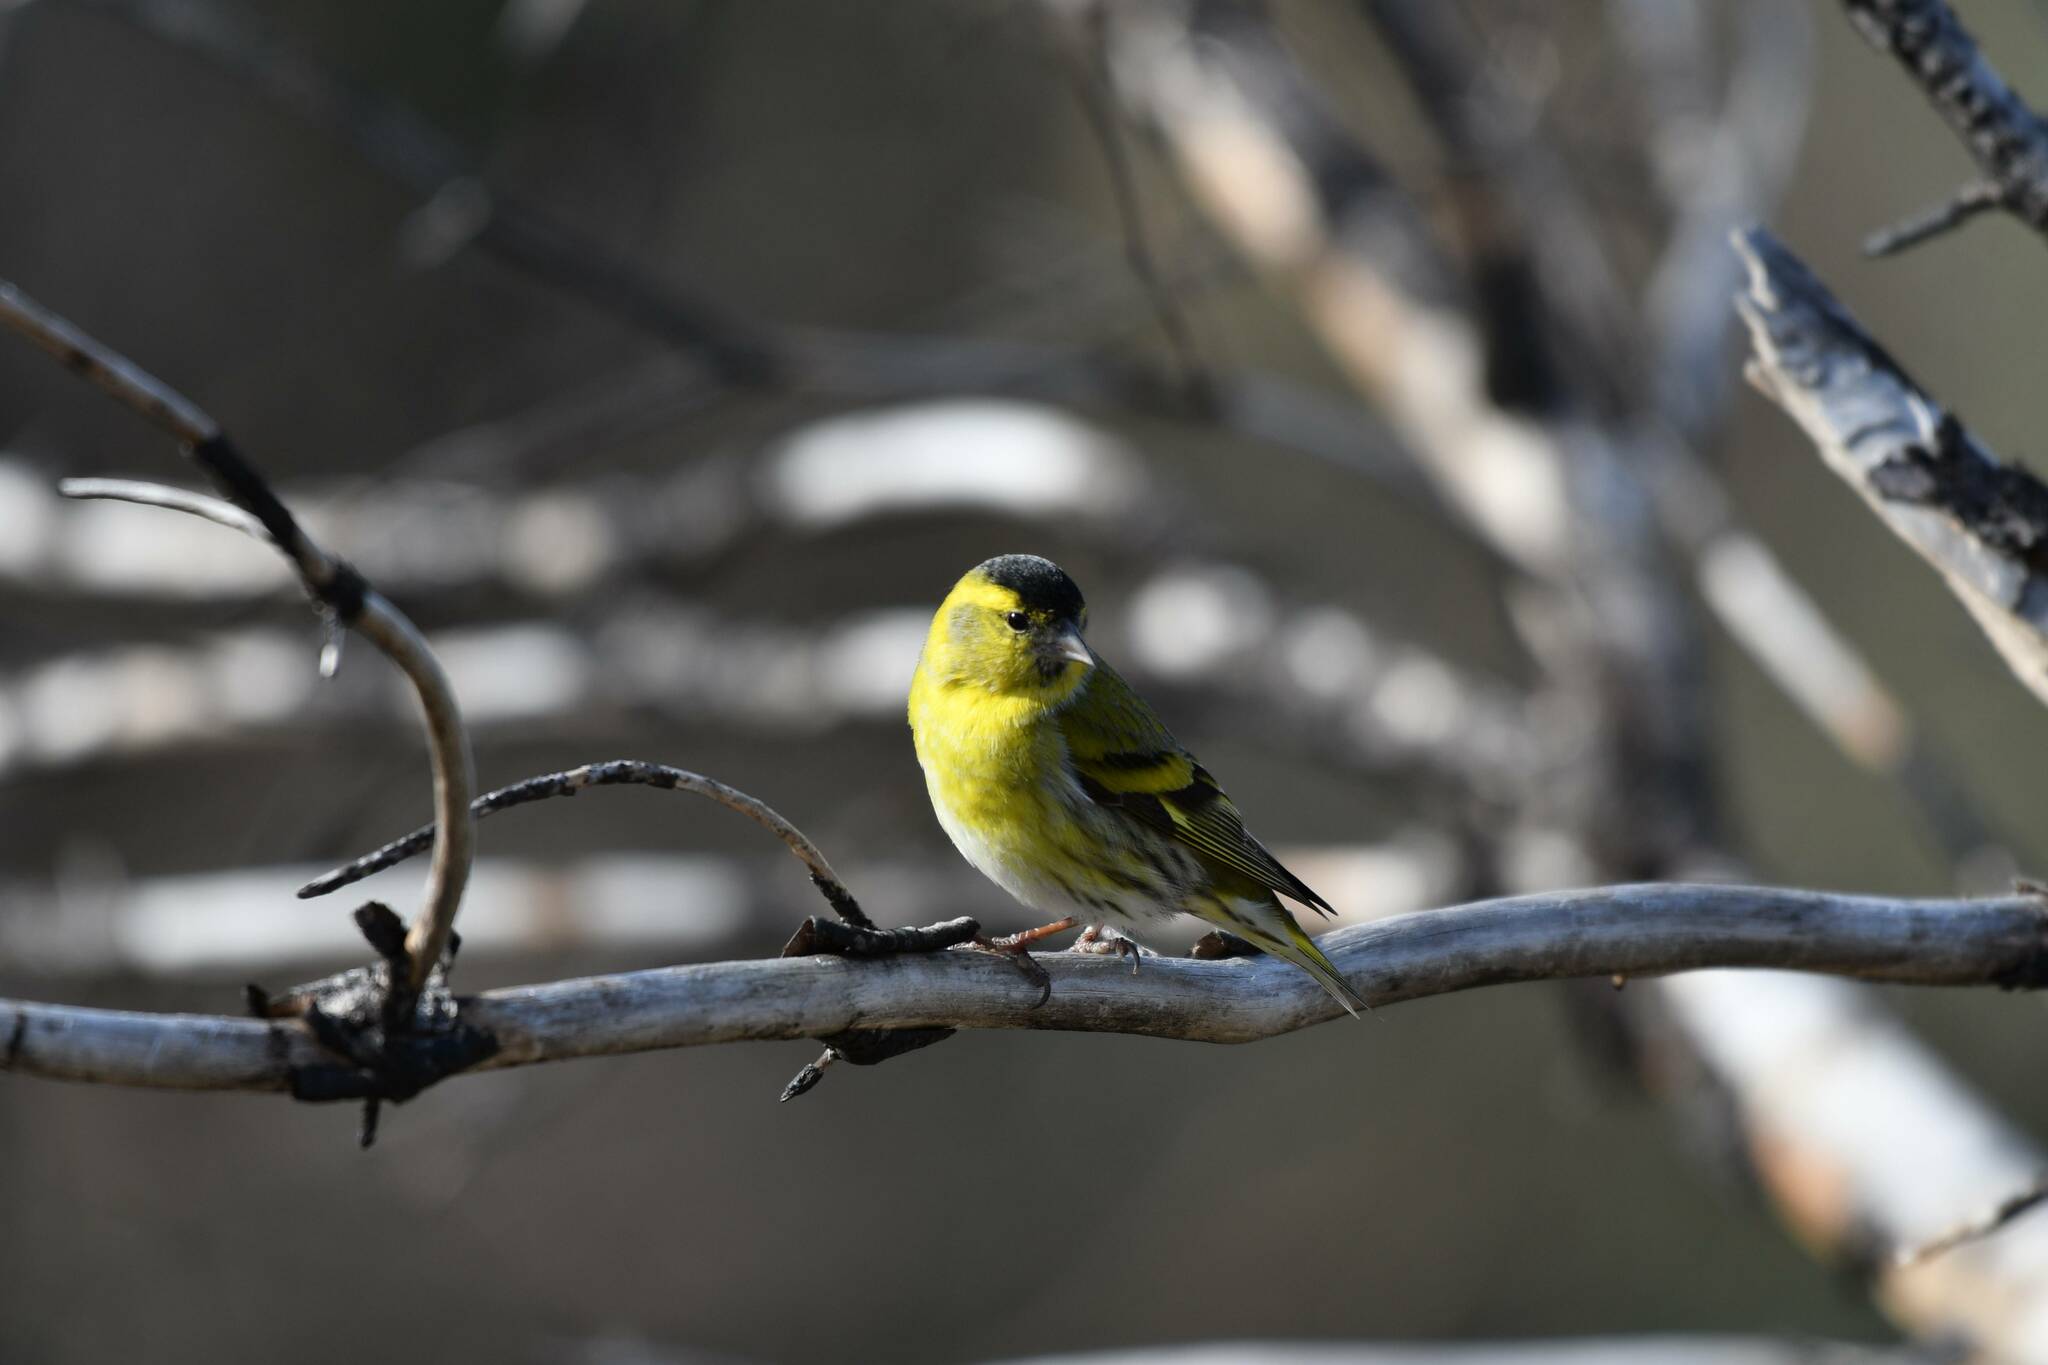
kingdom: Animalia
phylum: Chordata
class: Aves
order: Passeriformes
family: Fringillidae
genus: Spinus
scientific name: Spinus spinus
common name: Eurasian siskin
